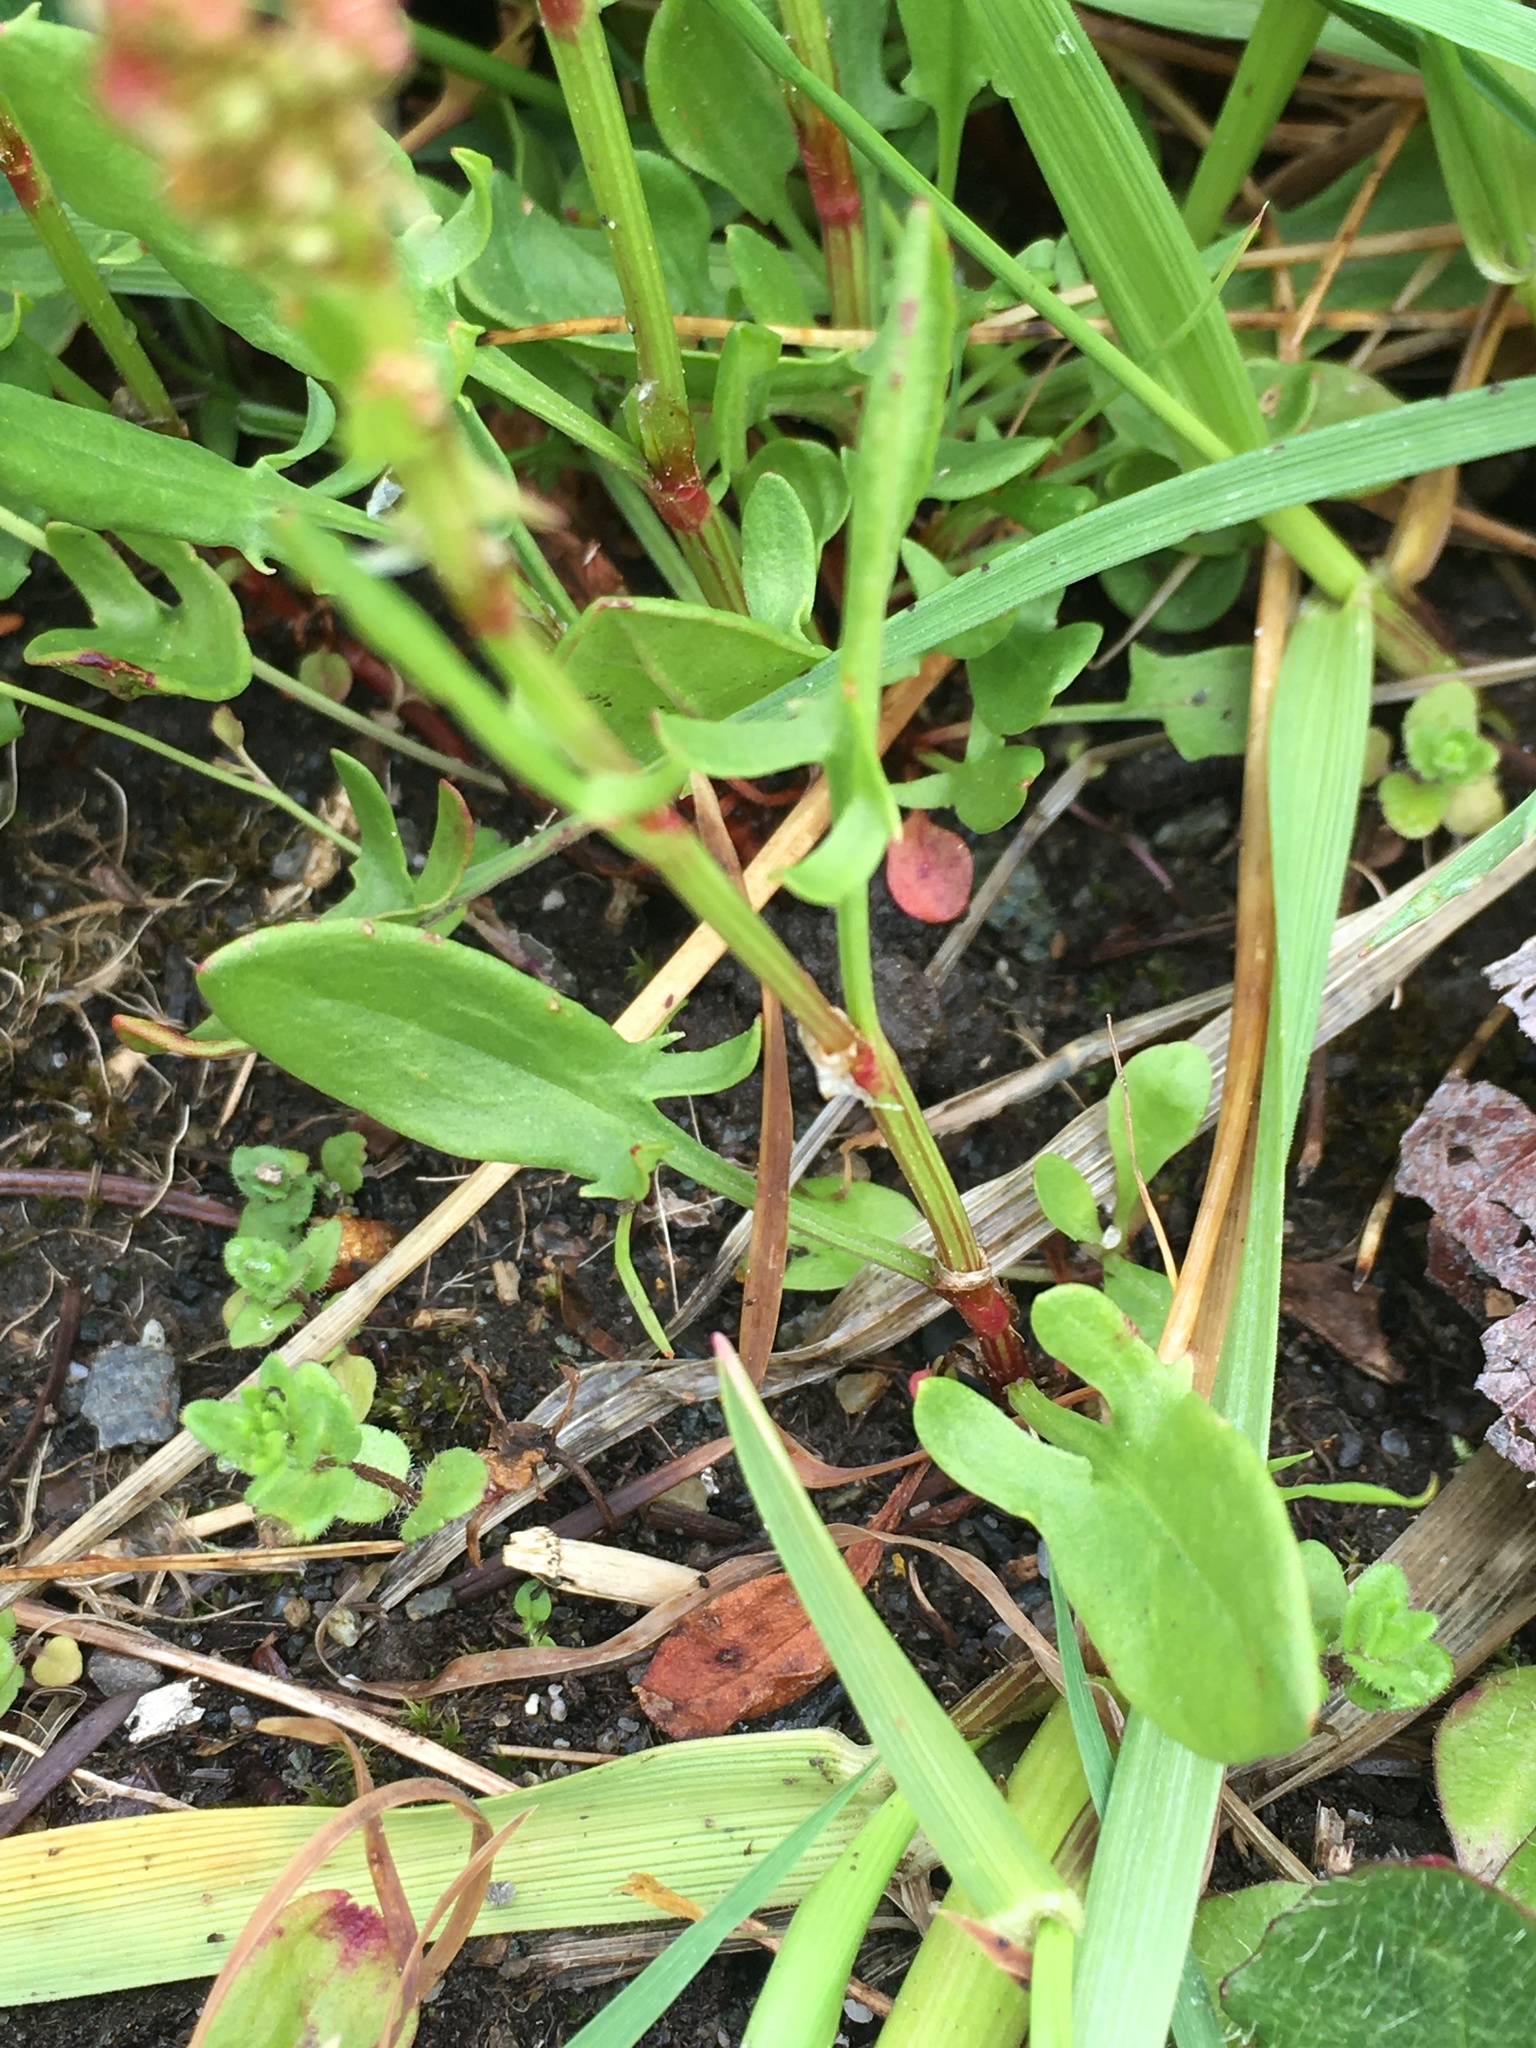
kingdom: Plantae
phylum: Tracheophyta
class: Magnoliopsida
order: Caryophyllales
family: Polygonaceae
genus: Rumex
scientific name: Rumex acetosella
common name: Common sheep sorrel
